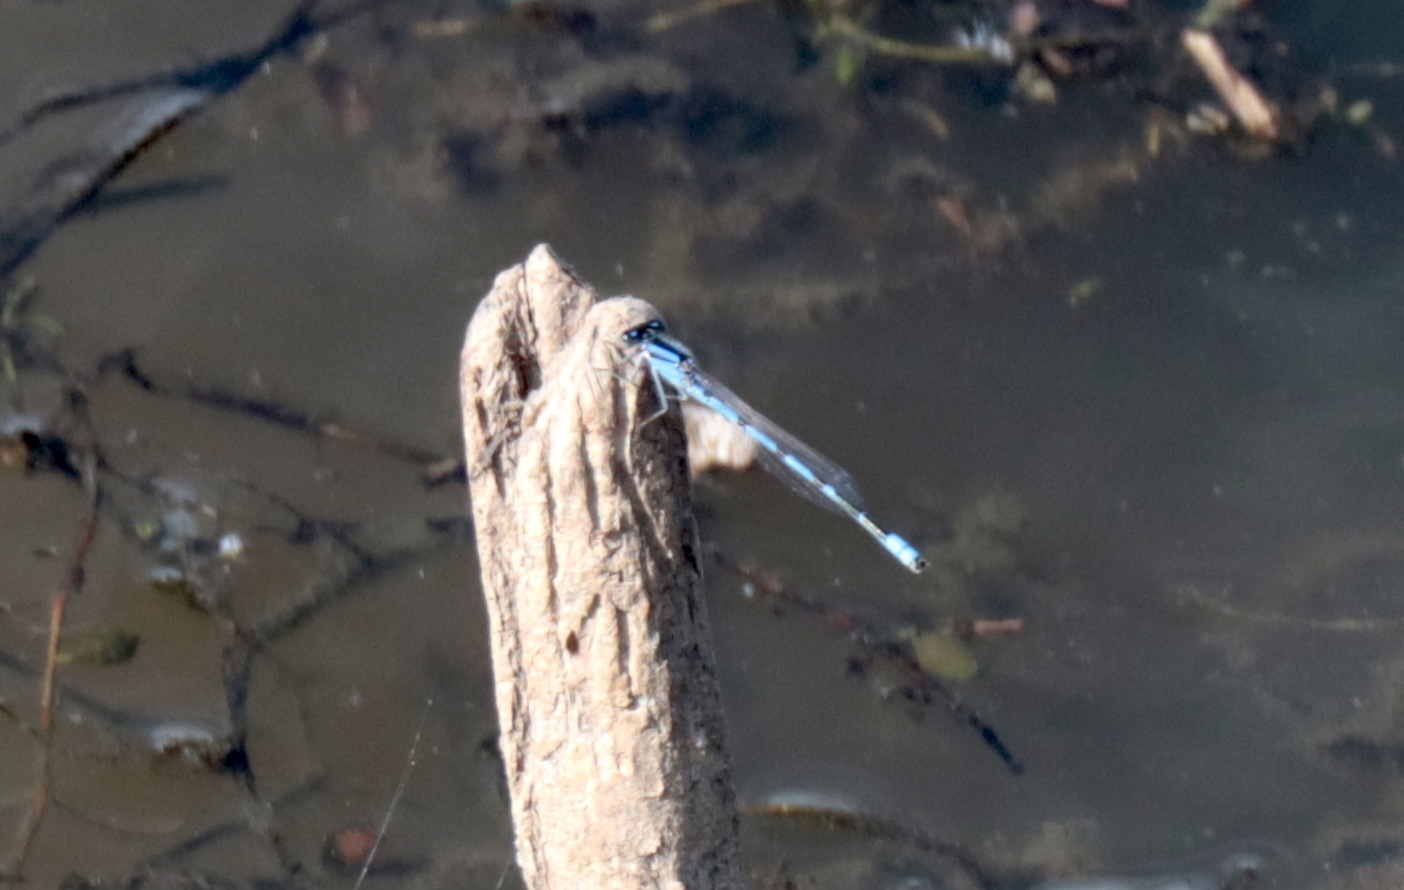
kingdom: Animalia
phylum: Arthropoda
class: Insecta
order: Odonata
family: Coenagrionidae
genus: Enallagma
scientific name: Enallagma civile
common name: Damselfly
